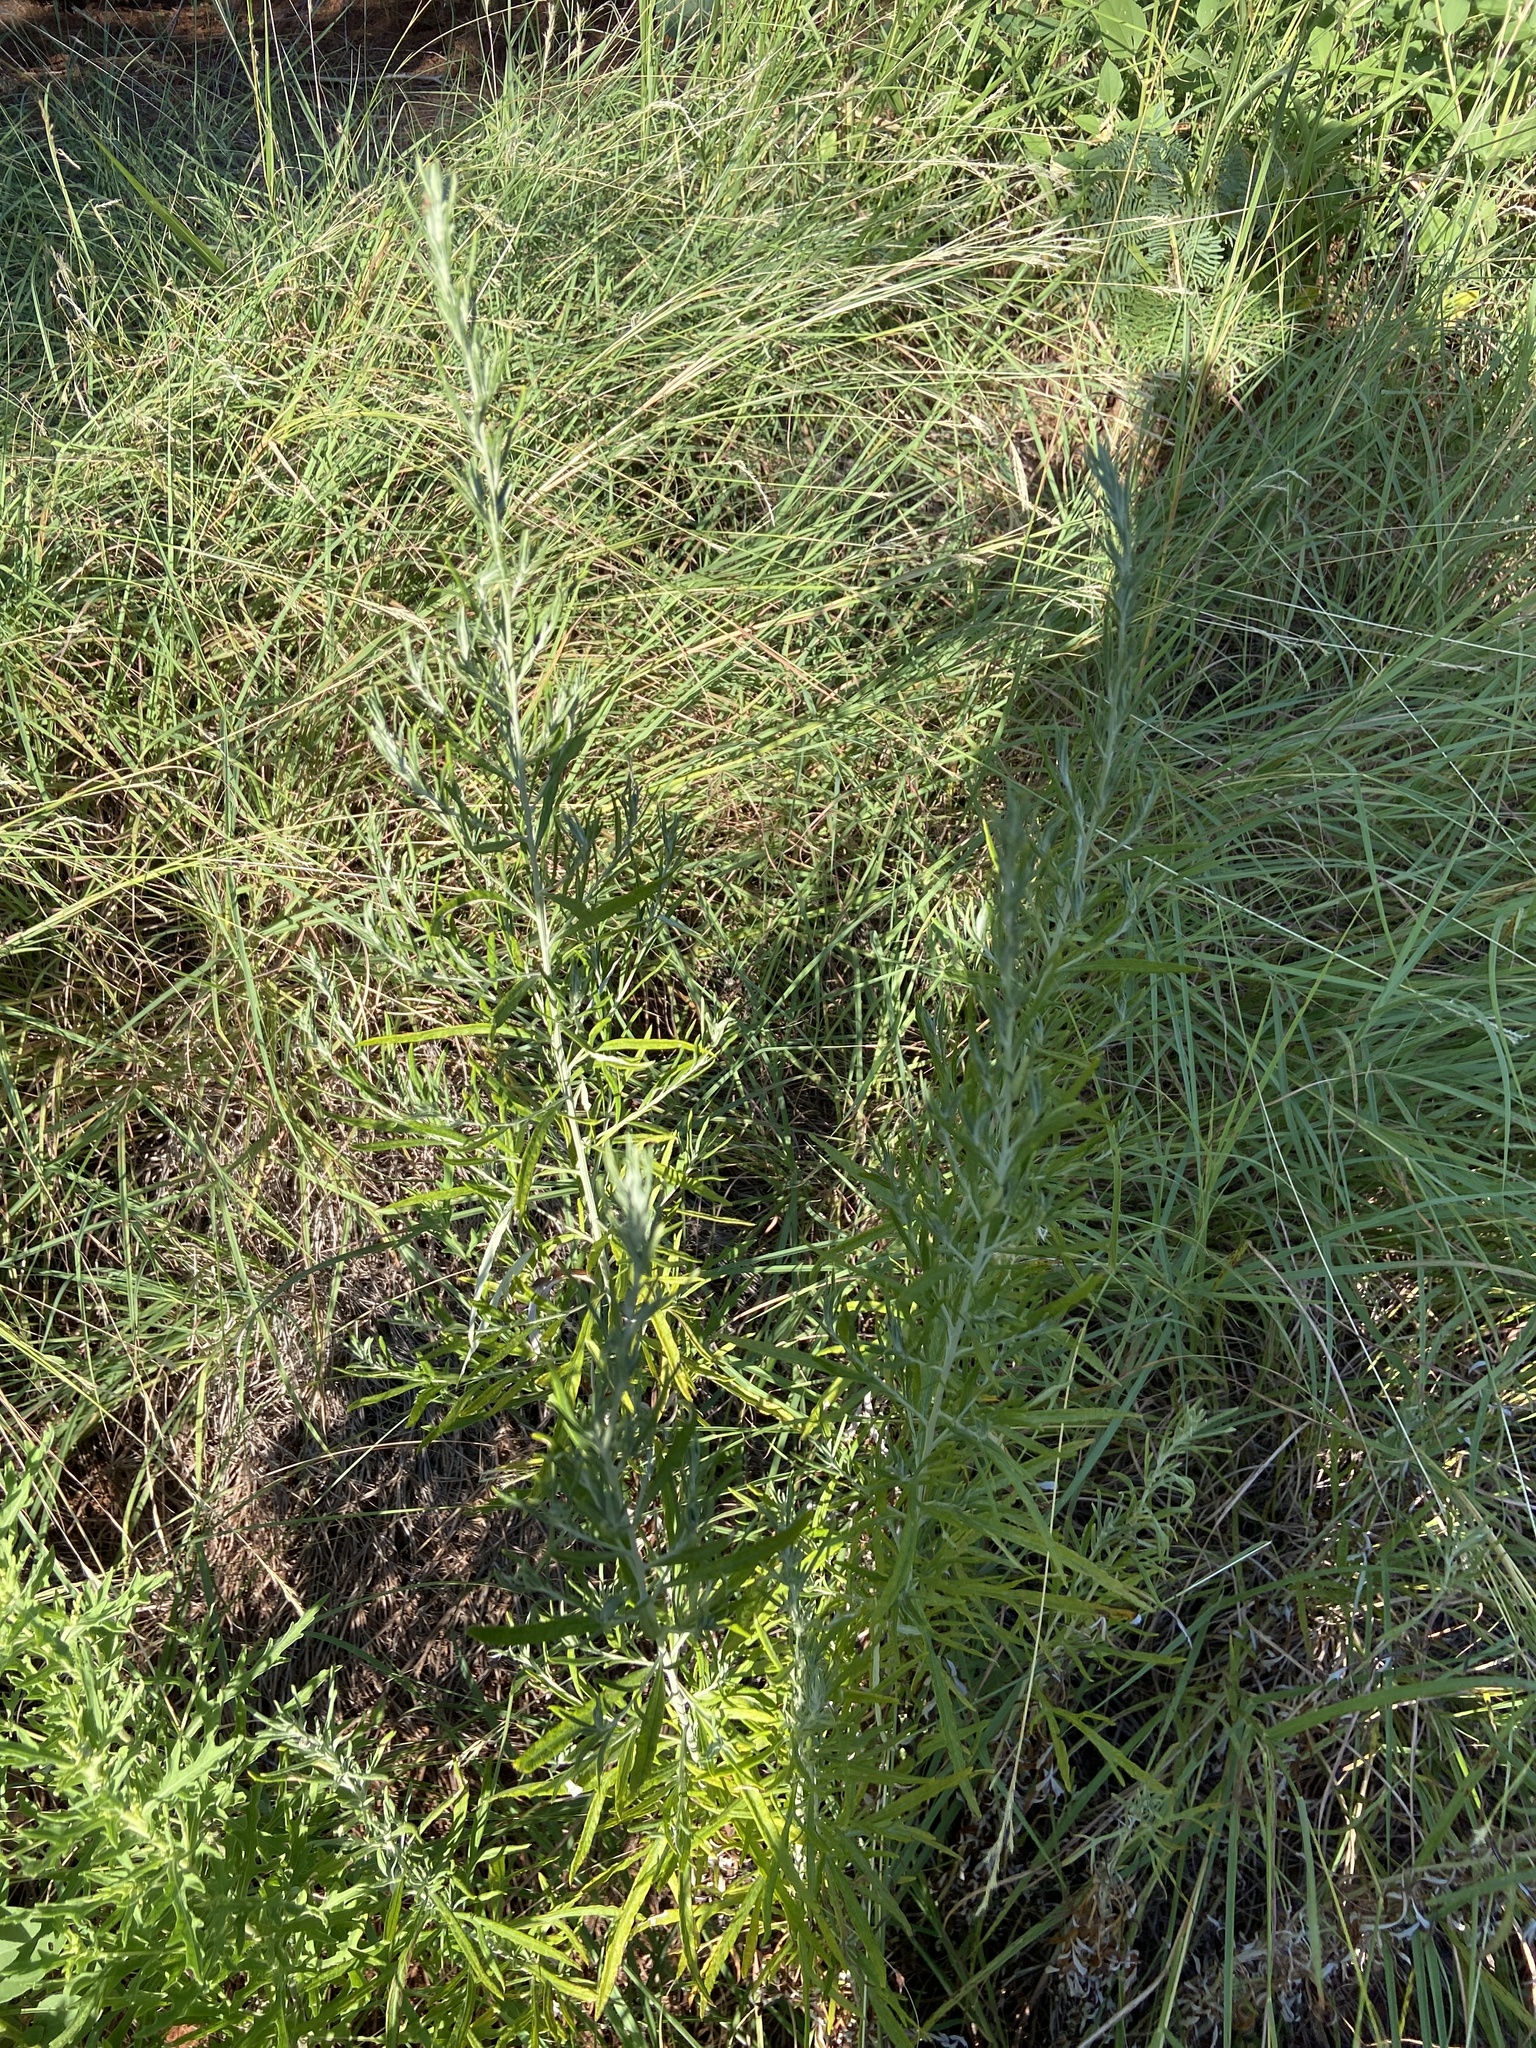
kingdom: Plantae
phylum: Tracheophyta
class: Magnoliopsida
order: Asterales
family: Asteraceae
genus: Artemisia
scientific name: Artemisia ludoviciana
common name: Western mugwort
